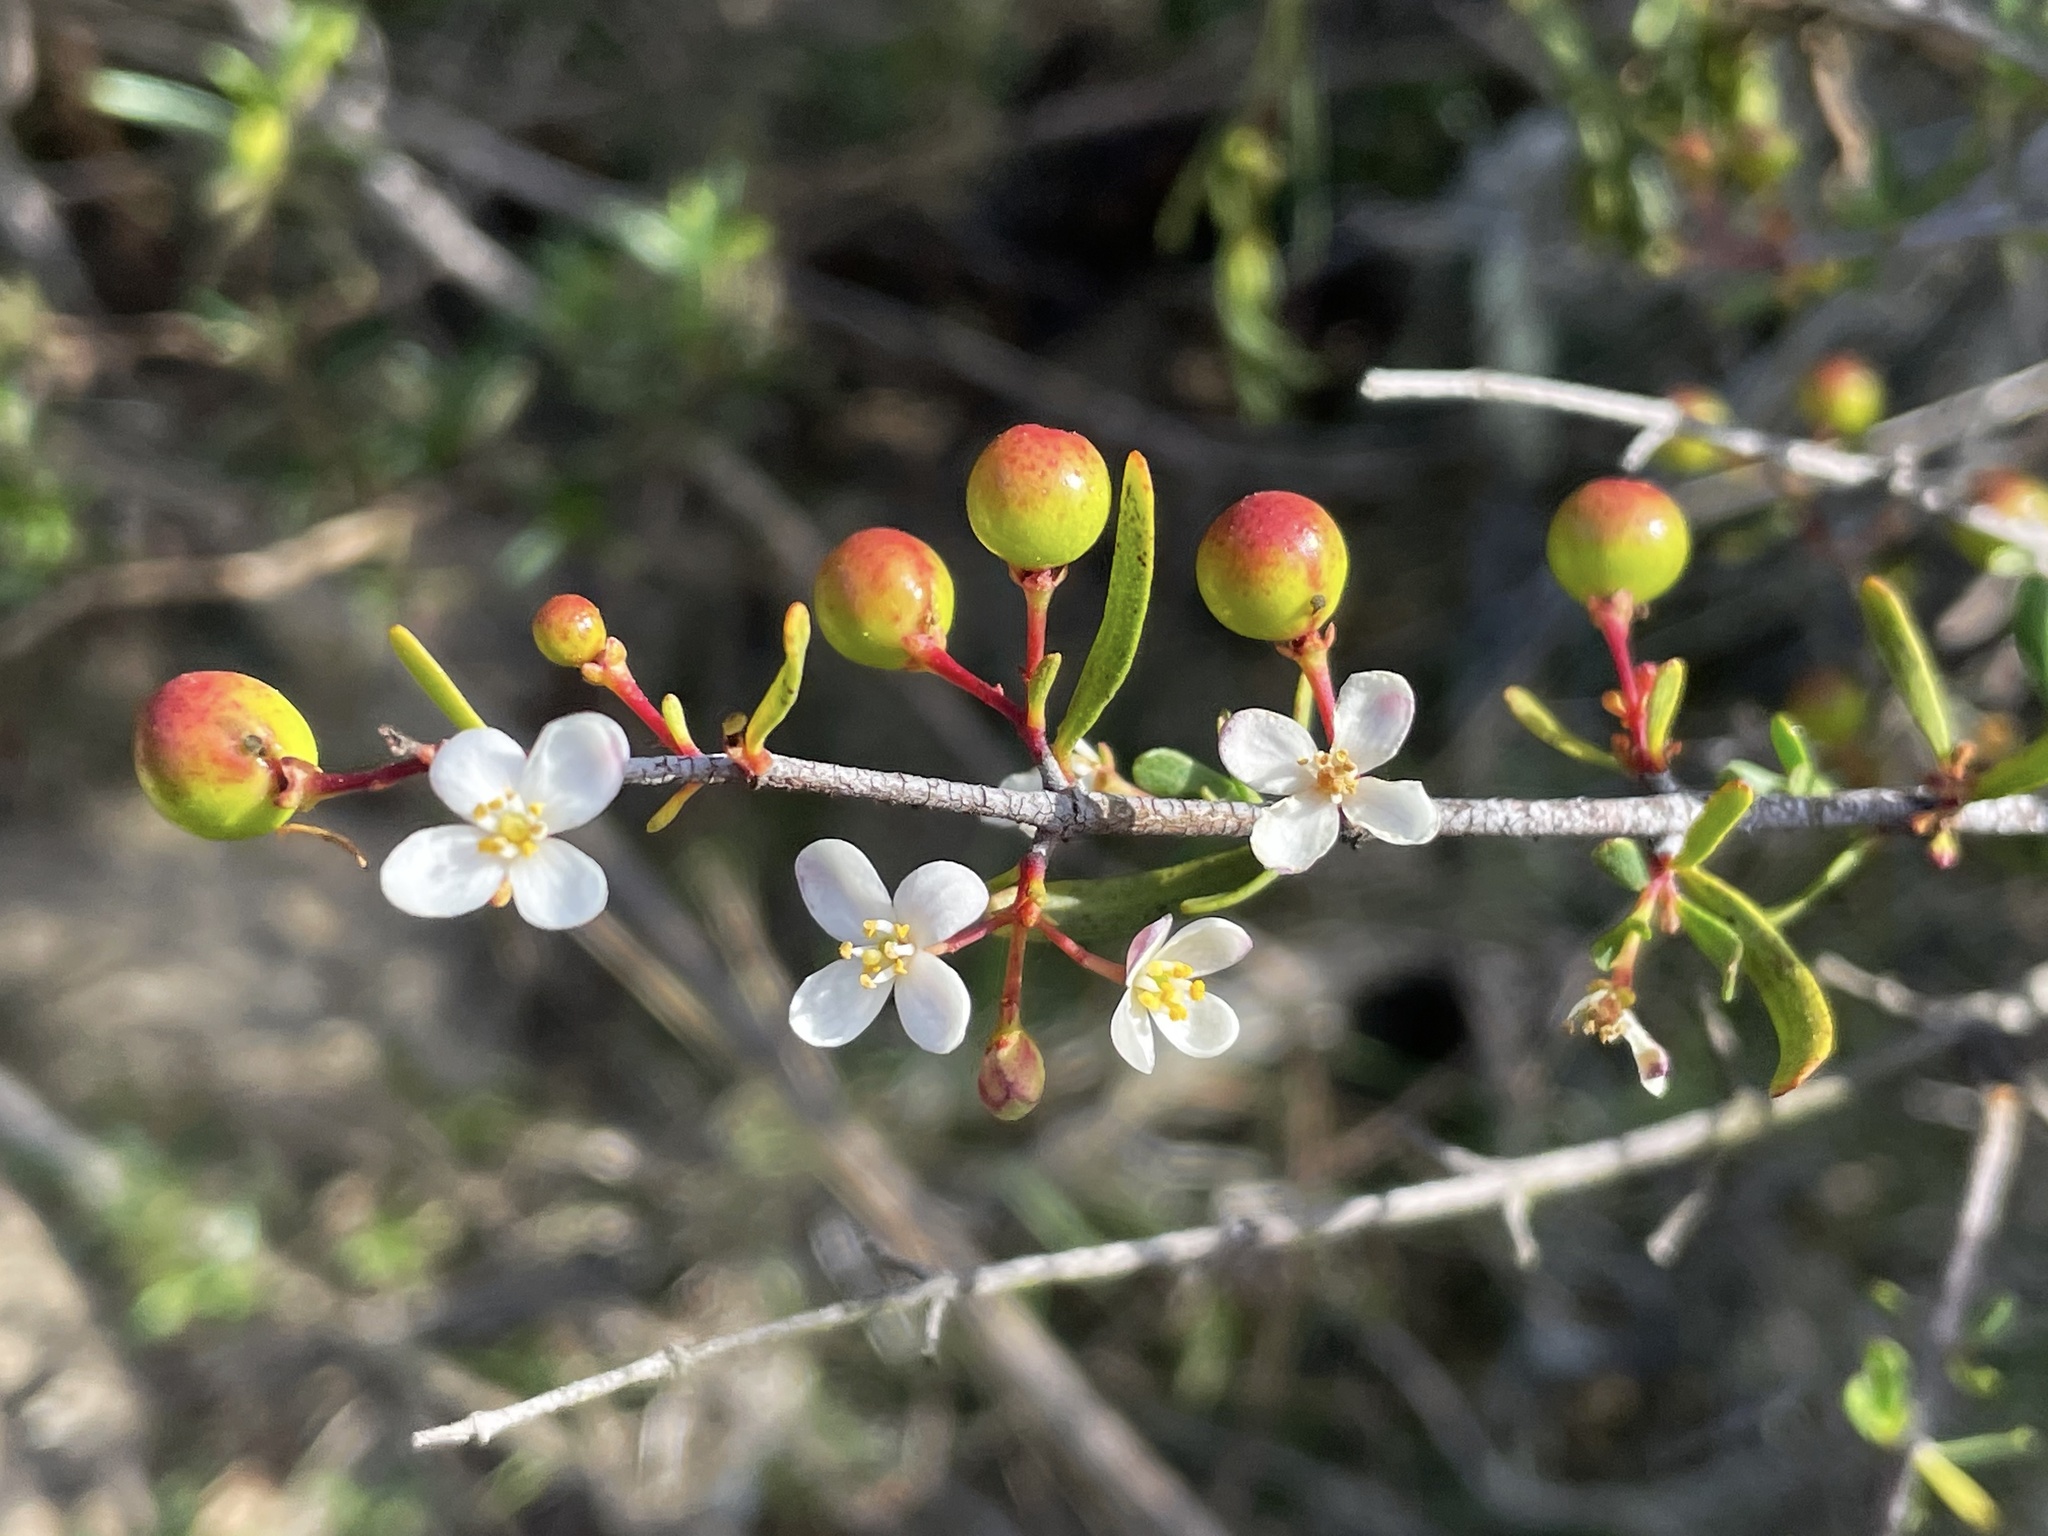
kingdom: Plantae
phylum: Tracheophyta
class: Magnoliopsida
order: Sapindales
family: Rutaceae
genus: Cneoridium
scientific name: Cneoridium dumosum
